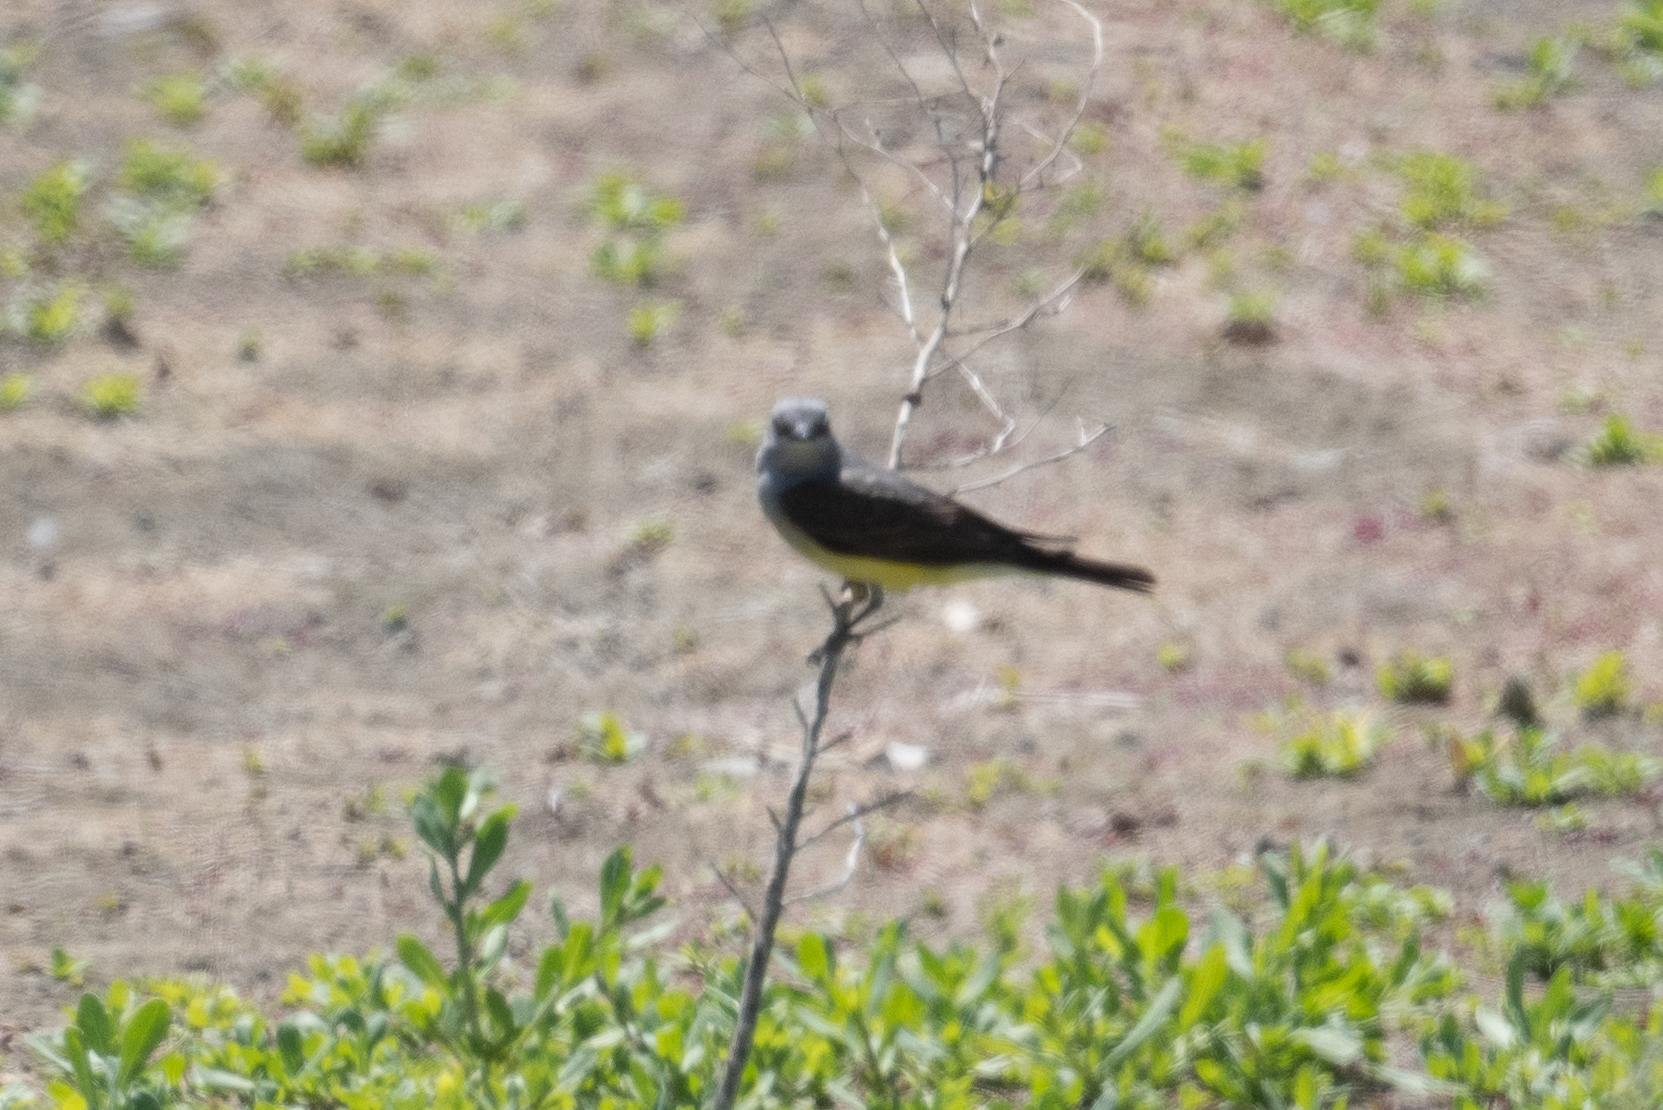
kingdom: Animalia
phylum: Chordata
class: Aves
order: Passeriformes
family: Tyrannidae
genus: Tyrannus
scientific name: Tyrannus verticalis
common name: Western kingbird
